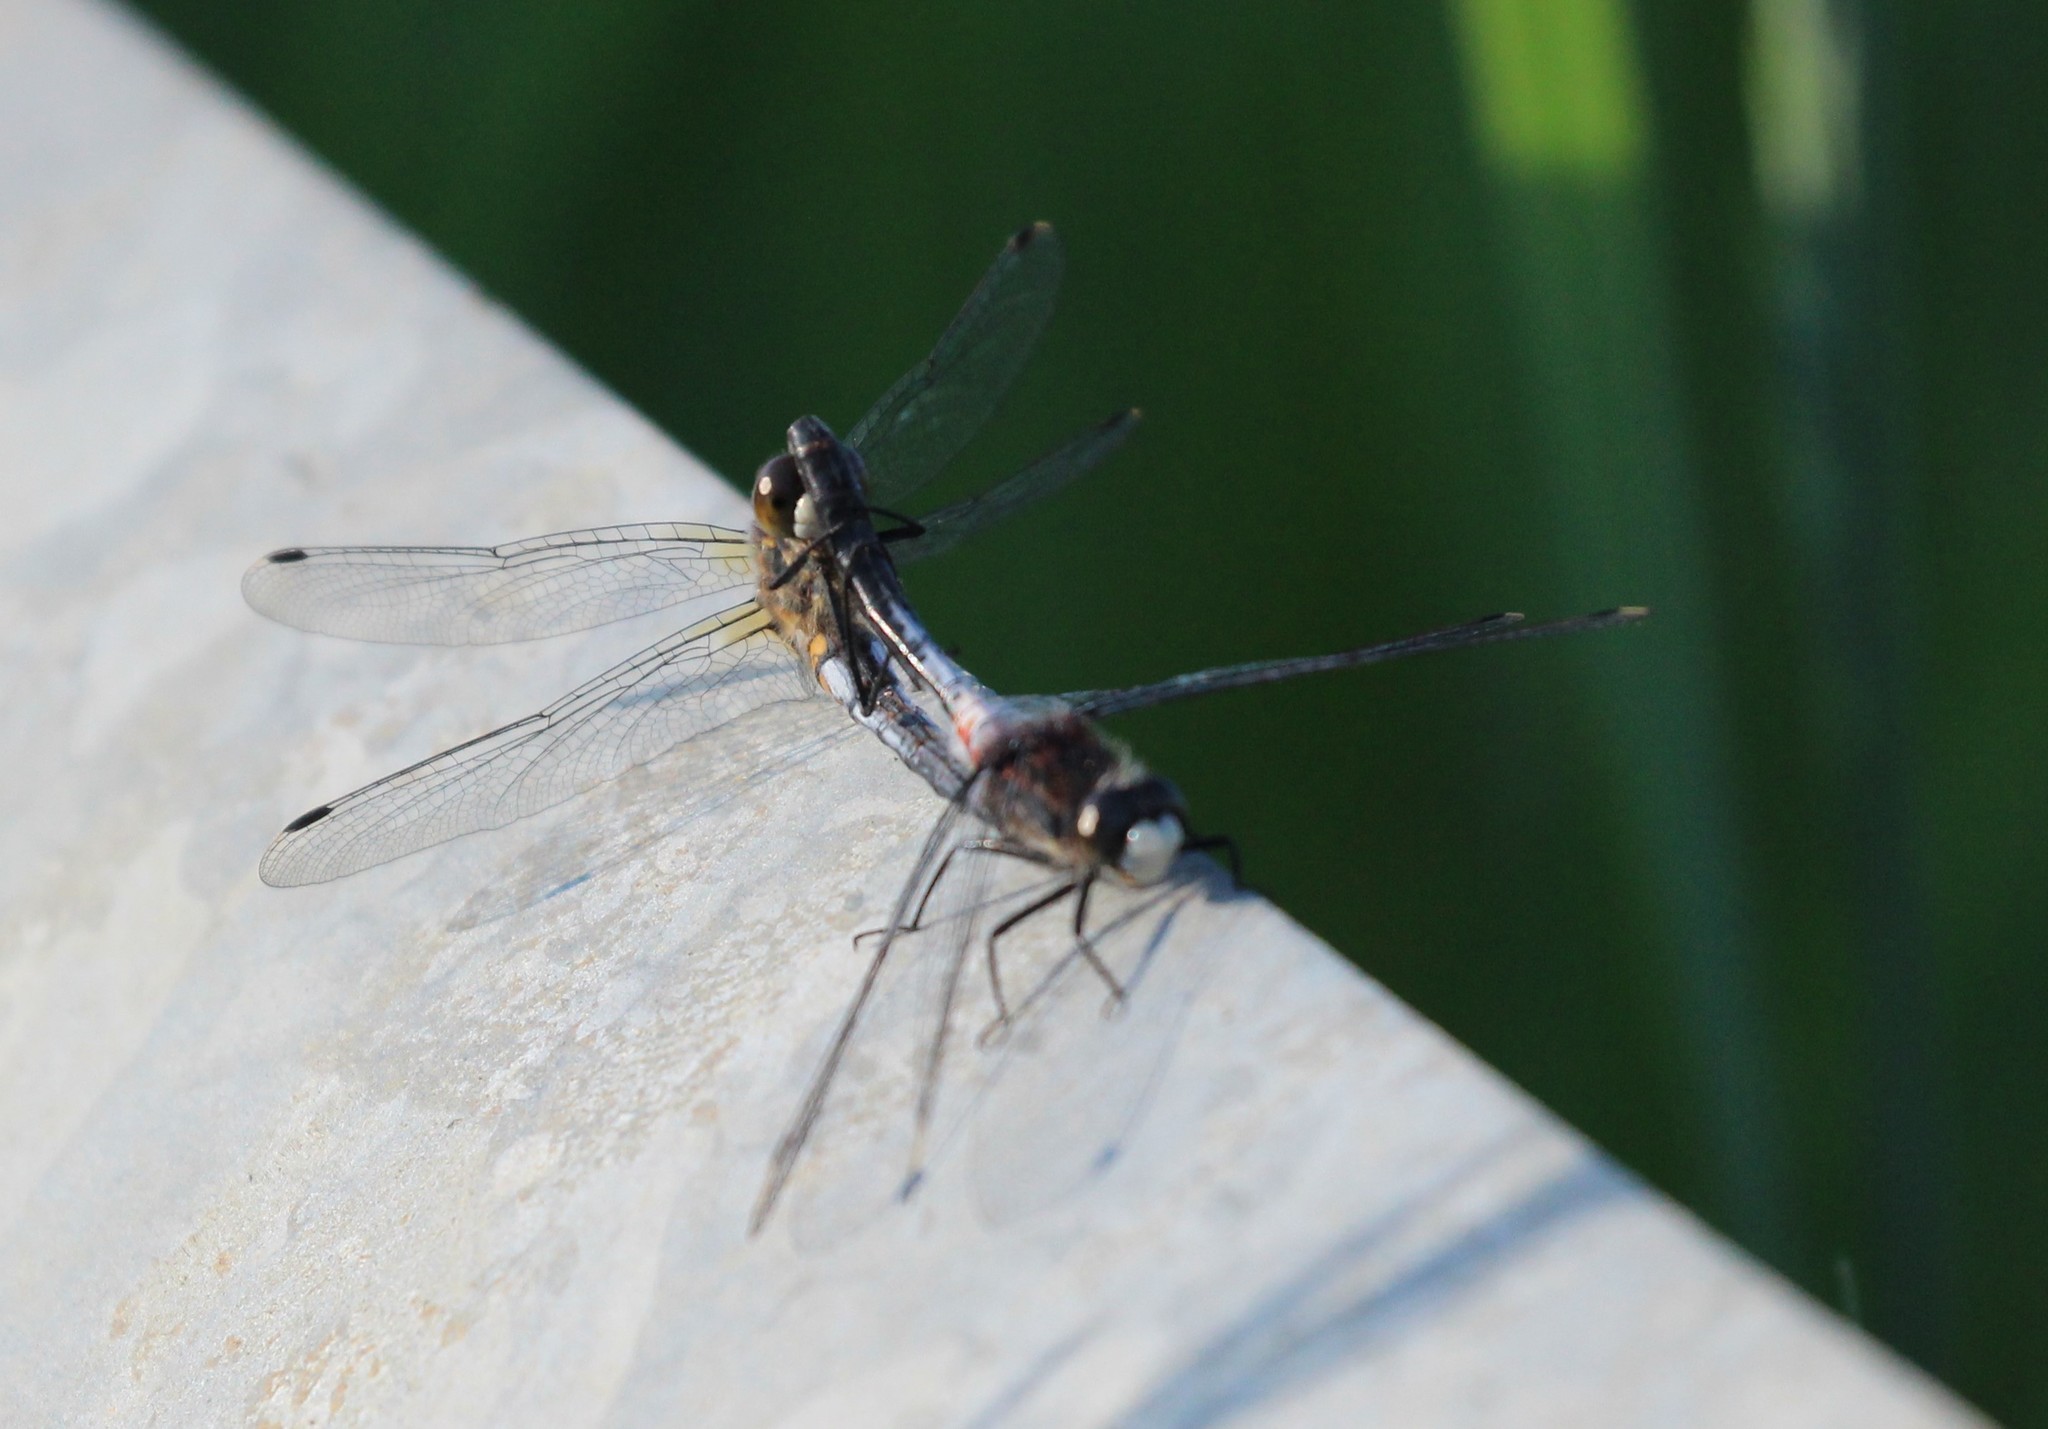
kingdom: Animalia
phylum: Arthropoda
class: Insecta
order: Odonata
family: Libellulidae
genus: Leucorrhinia
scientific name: Leucorrhinia proxima
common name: Belted whiteface
